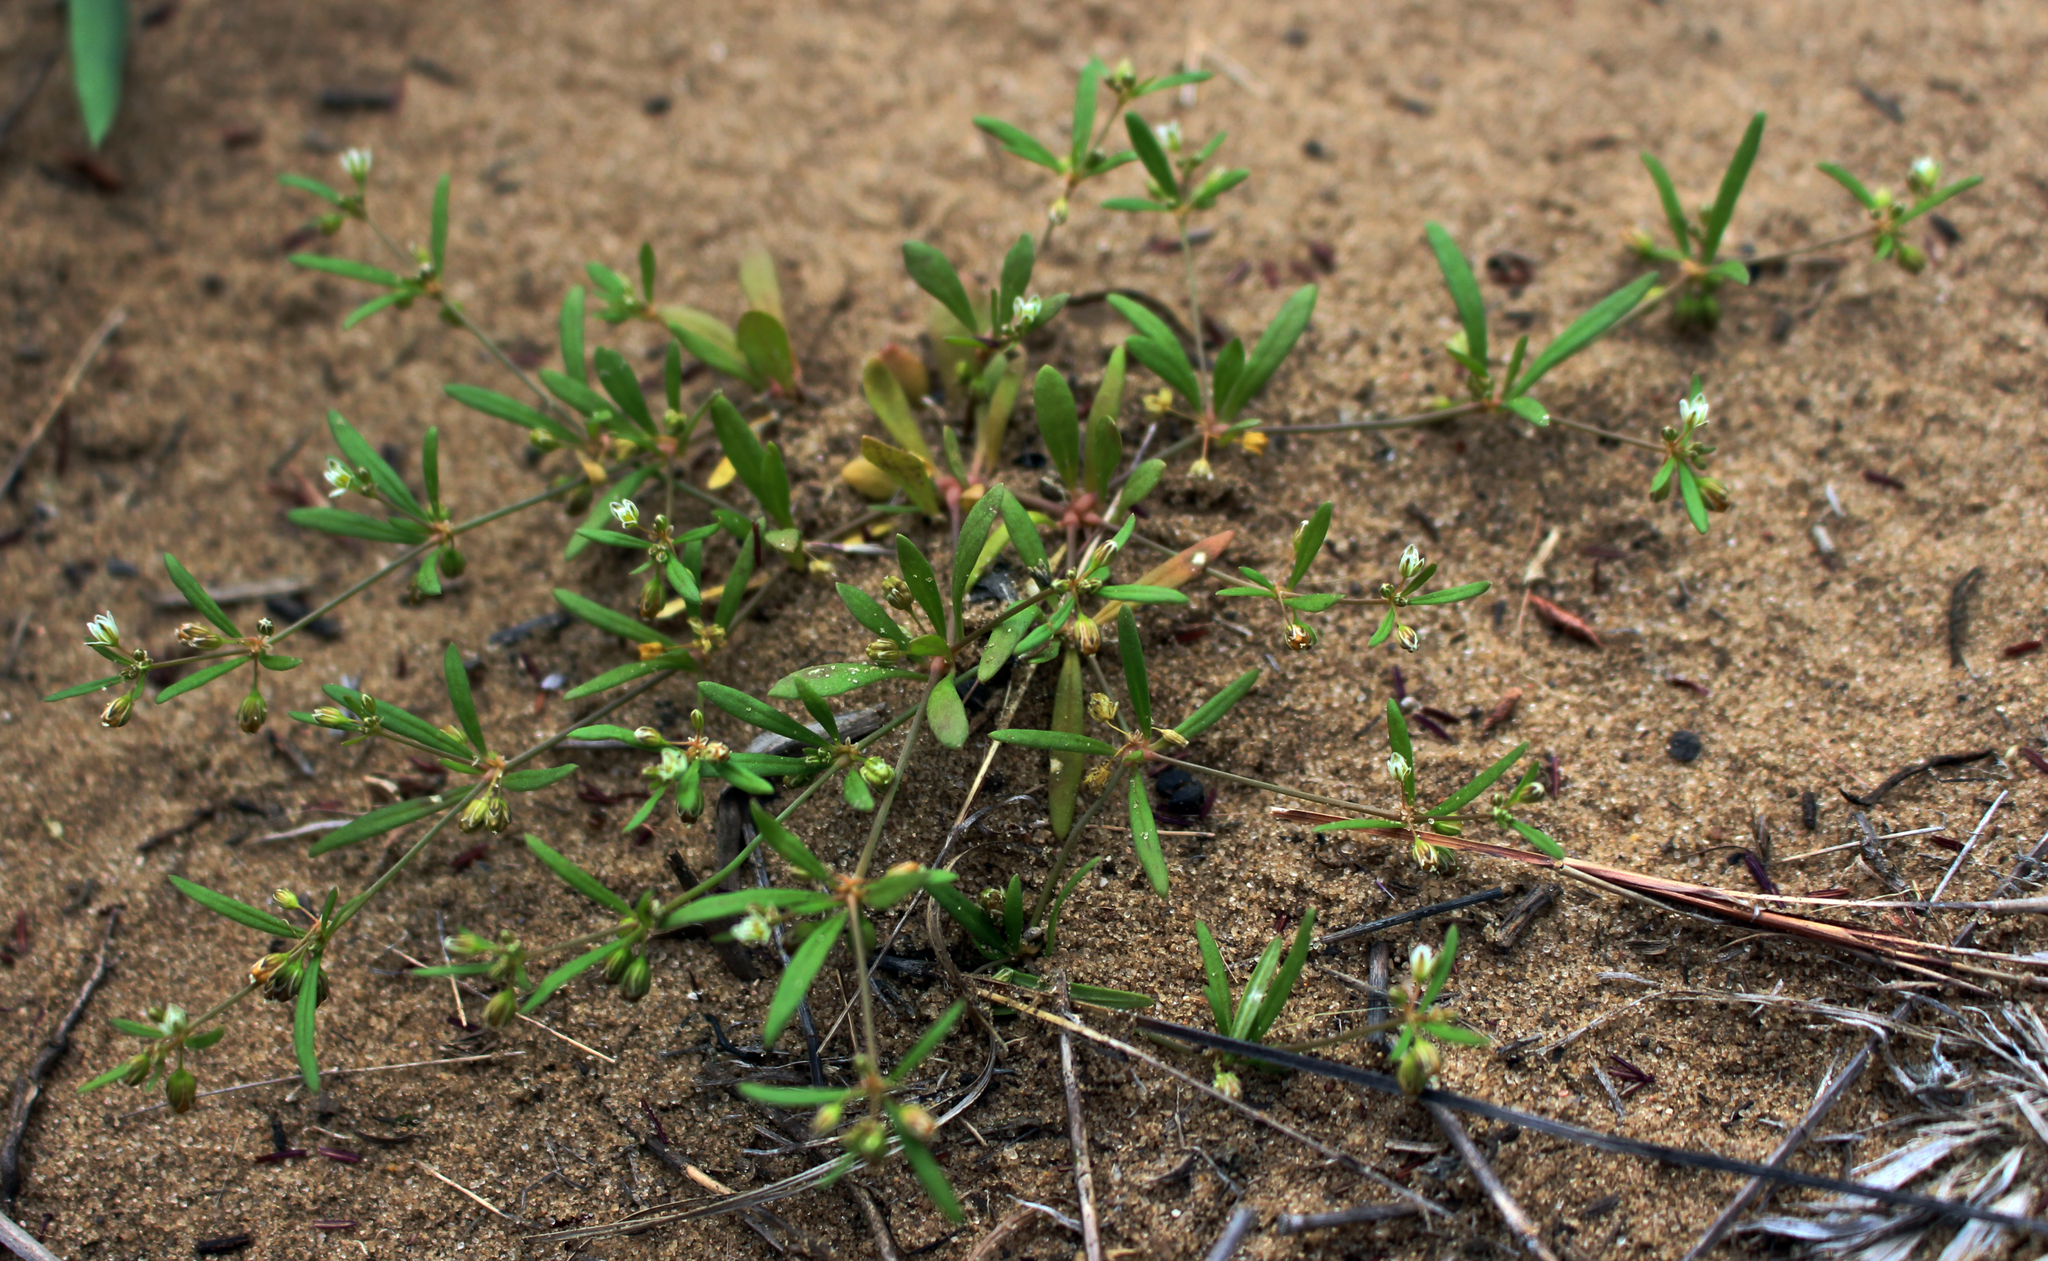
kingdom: Plantae
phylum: Tracheophyta
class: Magnoliopsida
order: Caryophyllales
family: Molluginaceae
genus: Mollugo
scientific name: Mollugo verticillata
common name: Green carpetweed
